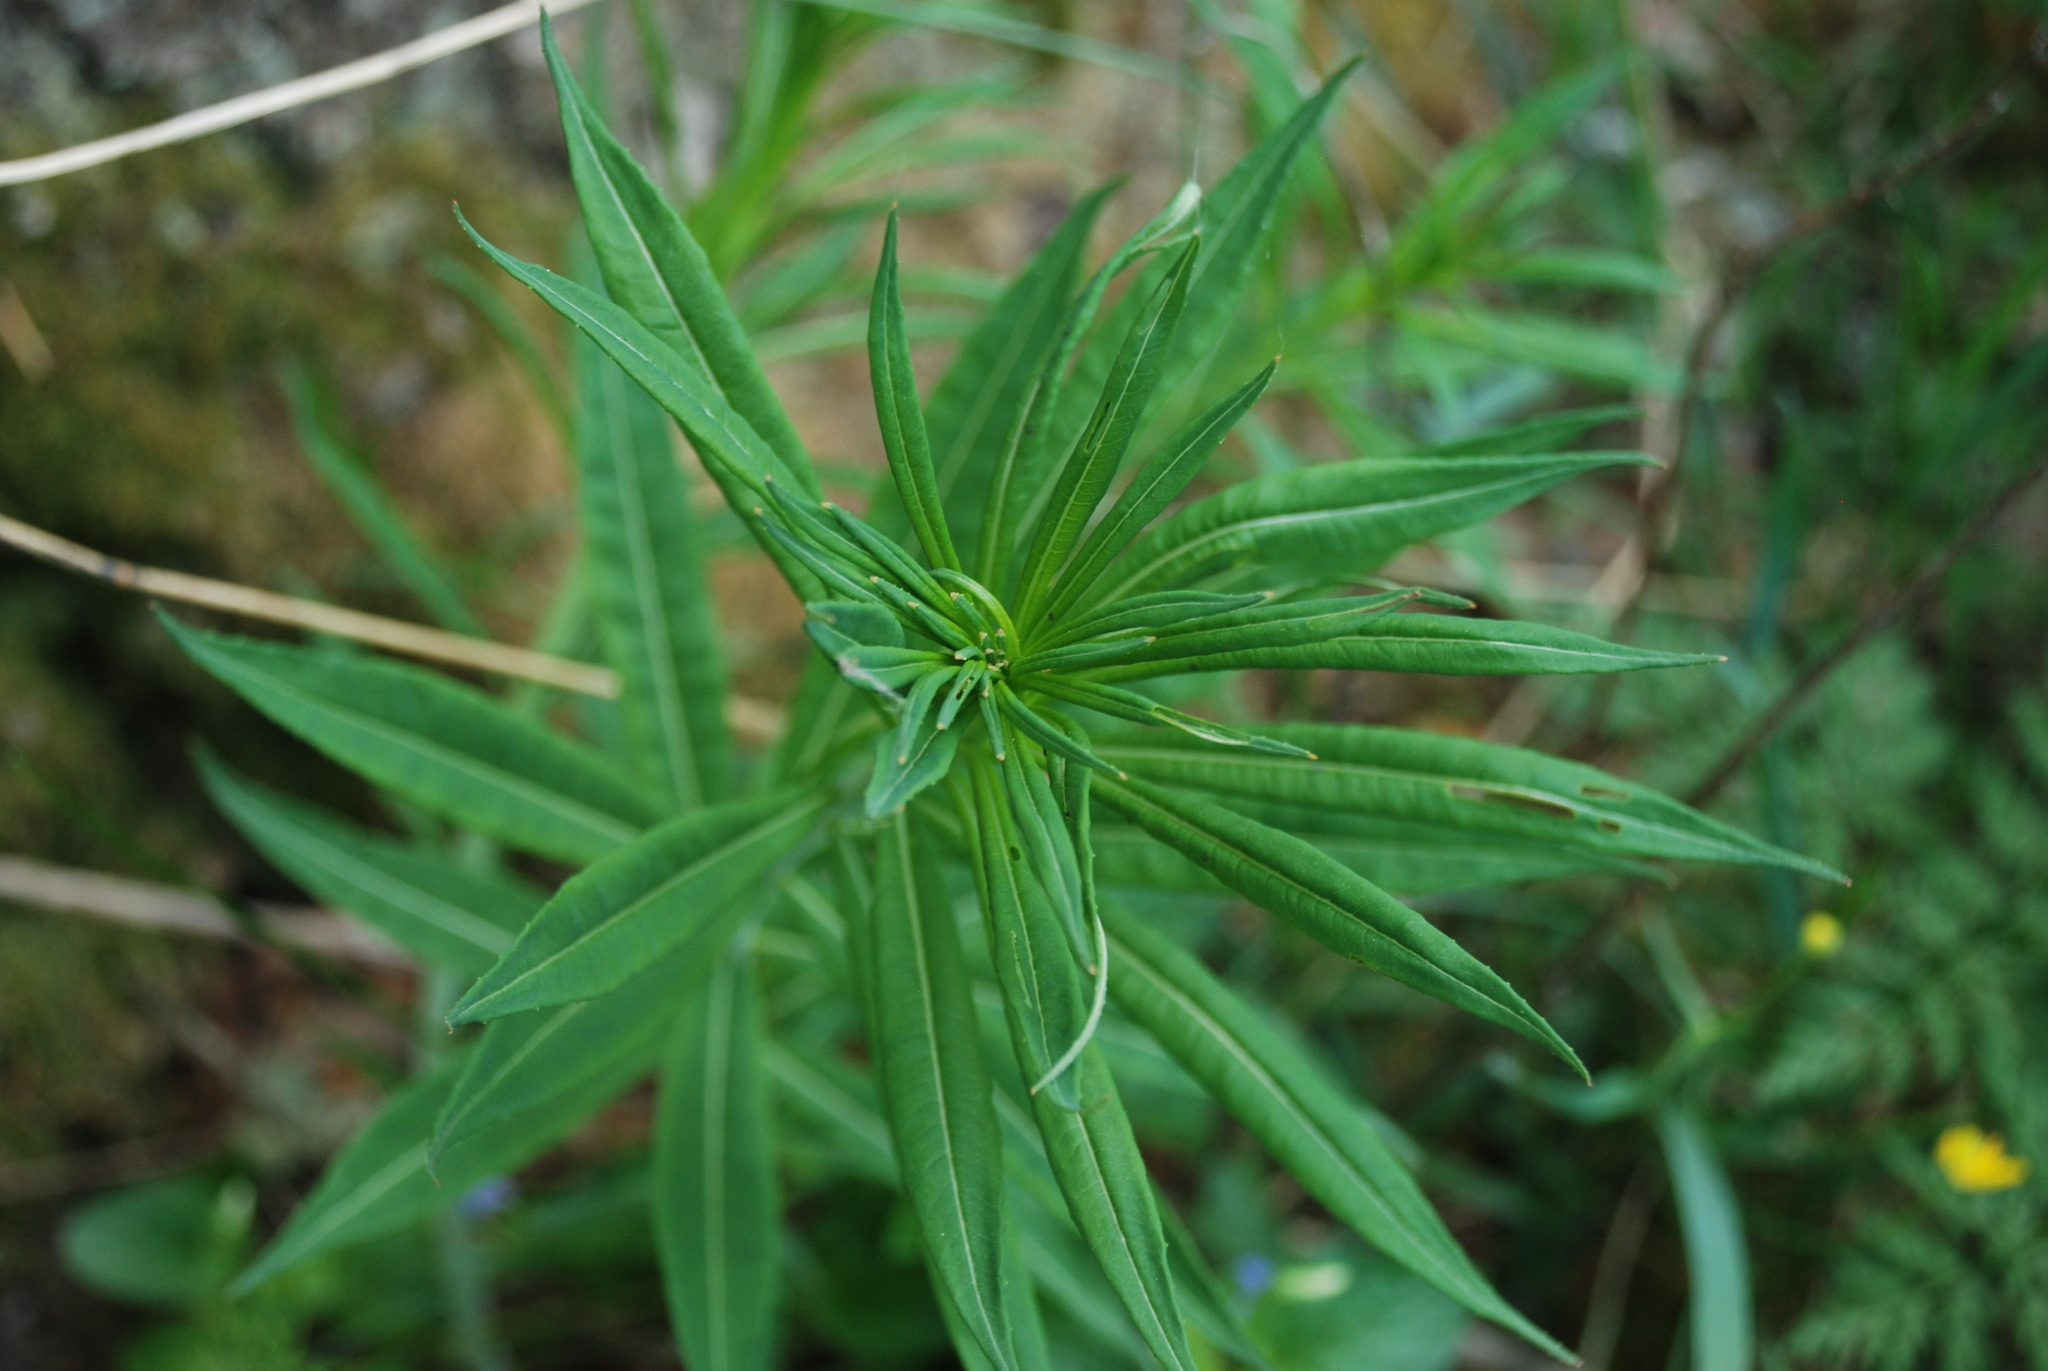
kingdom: Plantae
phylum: Tracheophyta
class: Magnoliopsida
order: Myrtales
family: Onagraceae
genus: Chamaenerion
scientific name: Chamaenerion angustifolium
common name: Fireweed
